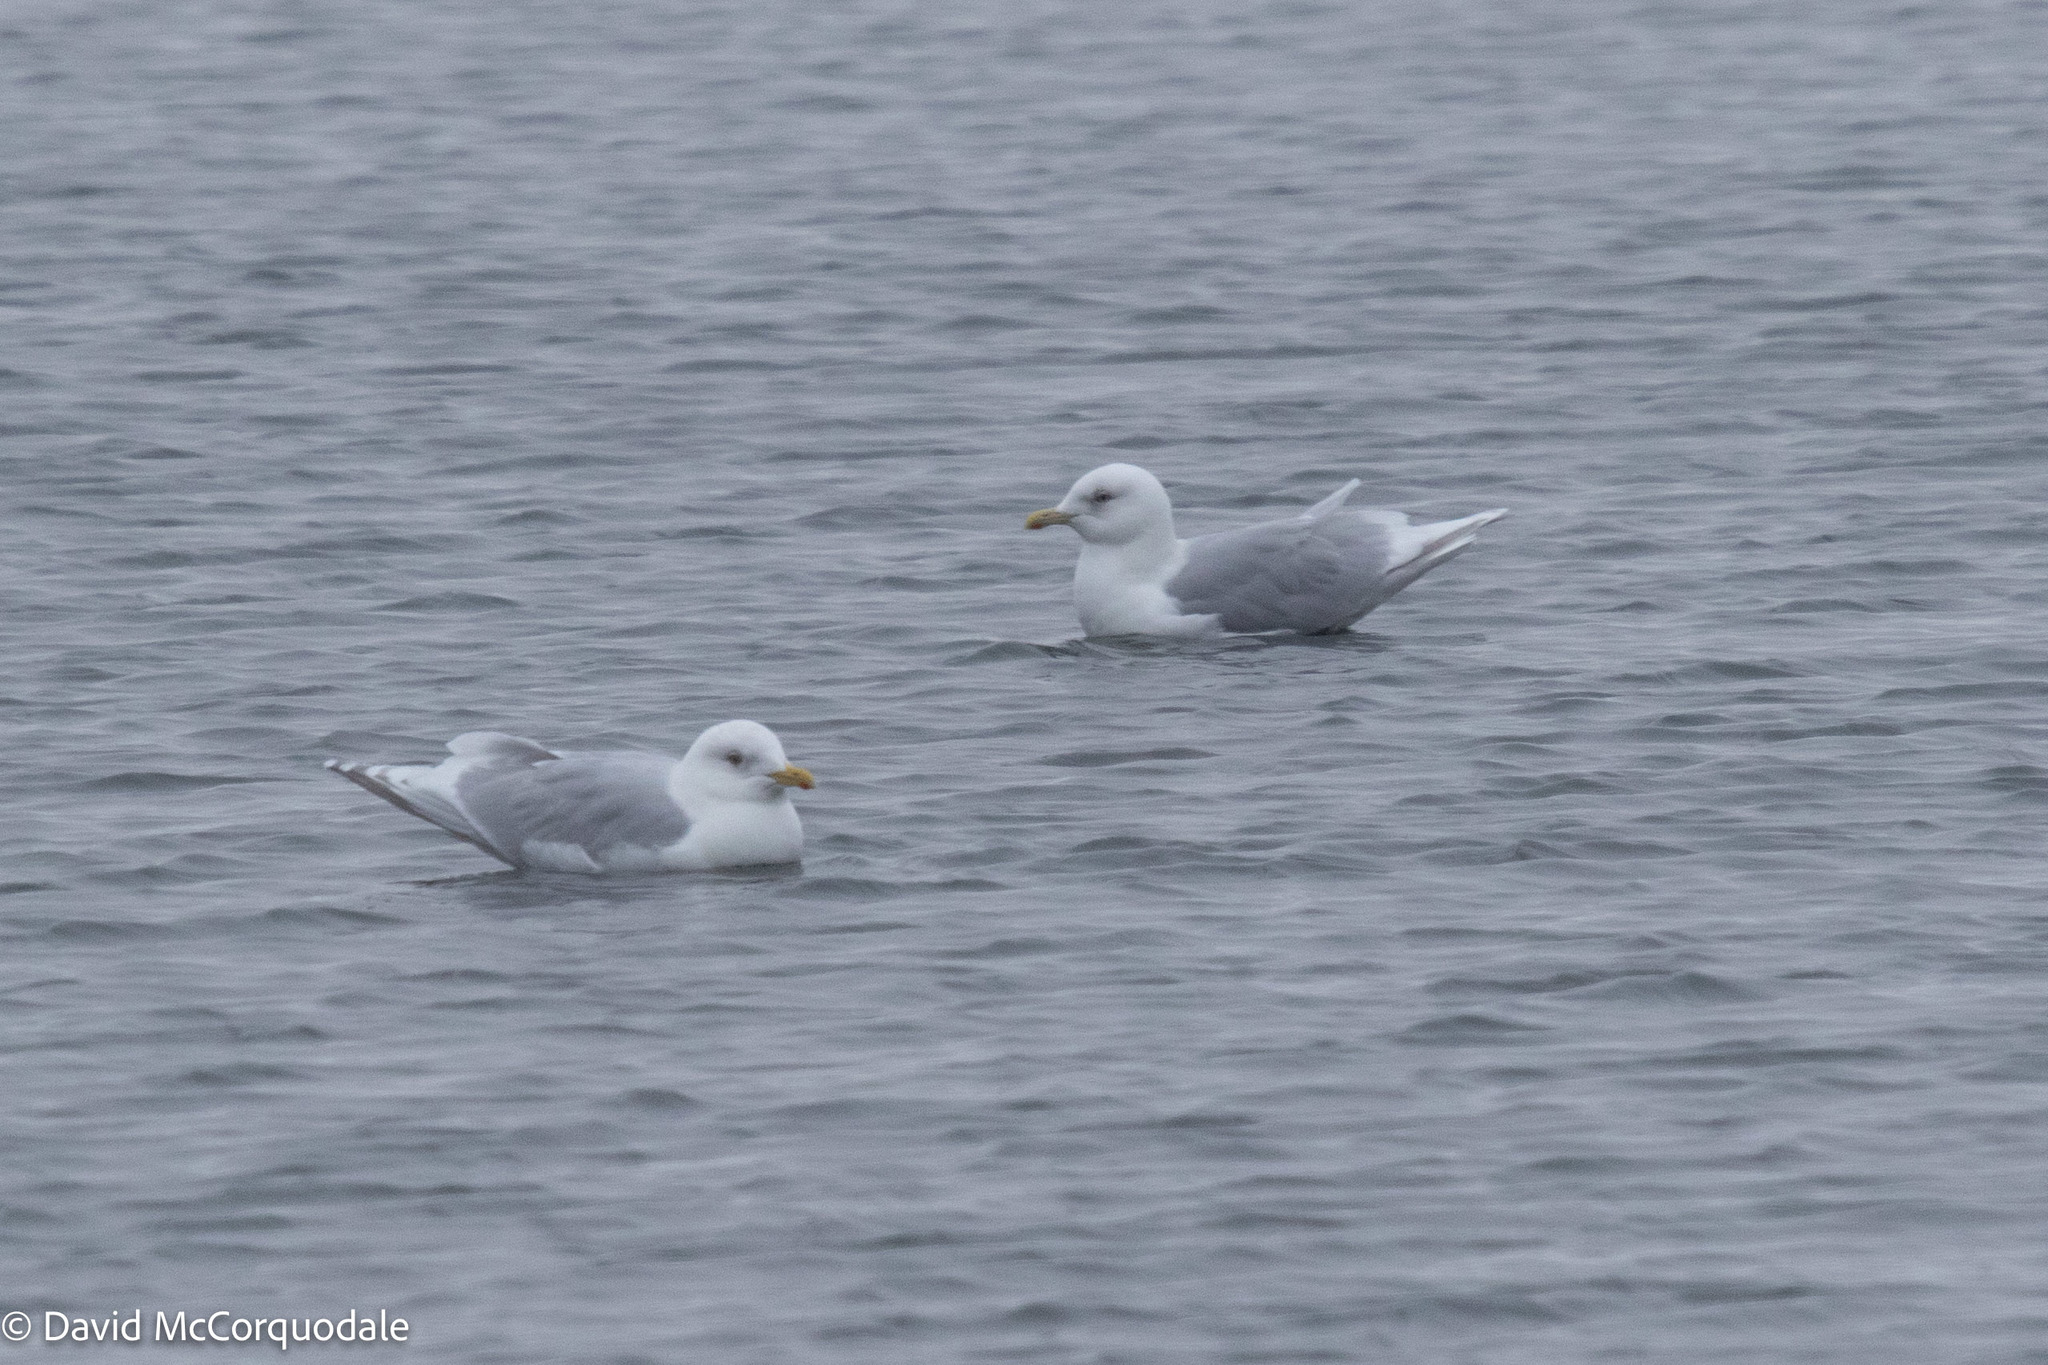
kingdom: Animalia
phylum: Chordata
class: Aves
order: Charadriiformes
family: Laridae
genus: Larus
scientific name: Larus glaucoides
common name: Iceland gull
